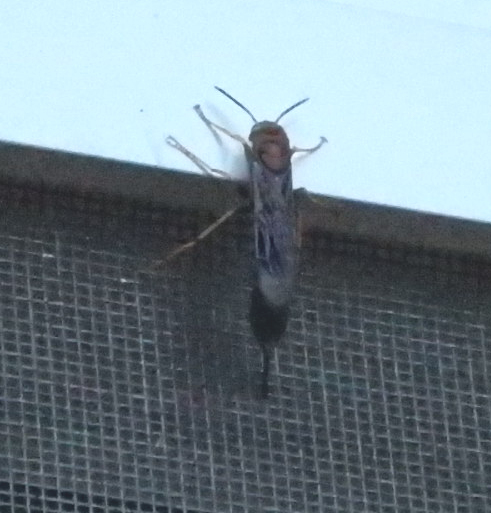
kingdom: Animalia
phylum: Arthropoda
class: Insecta
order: Hymenoptera
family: Siricidae
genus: Tremex
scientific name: Tremex columba
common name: Wasp
